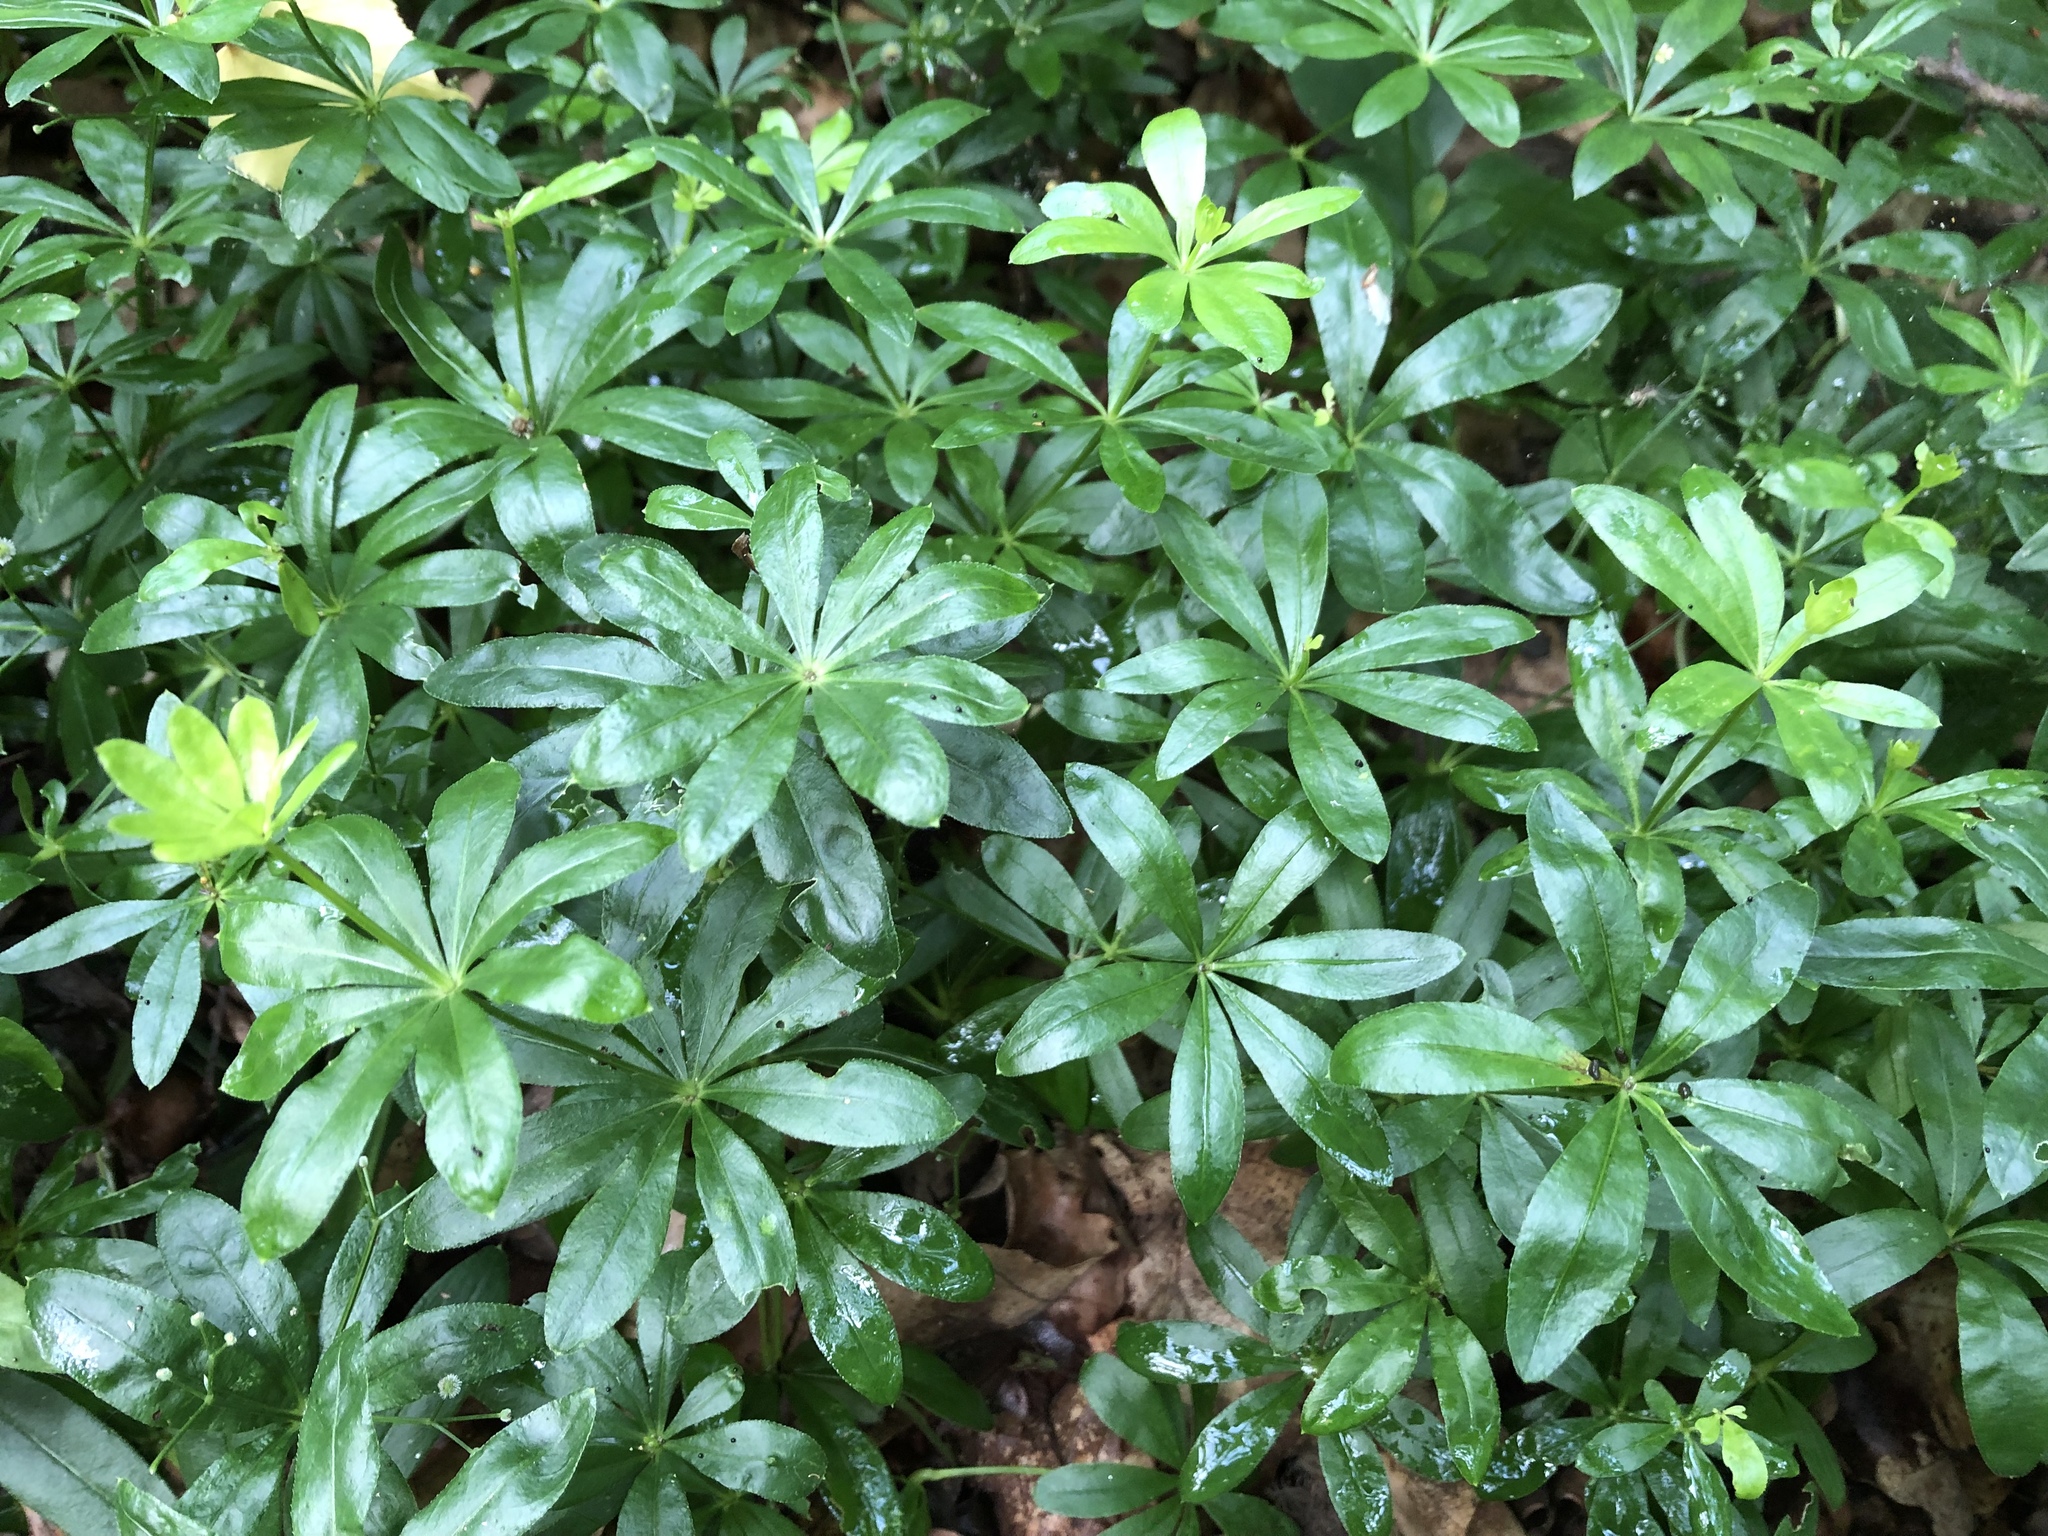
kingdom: Plantae
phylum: Tracheophyta
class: Magnoliopsida
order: Gentianales
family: Rubiaceae
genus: Galium
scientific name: Galium odoratum
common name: Sweet woodruff
